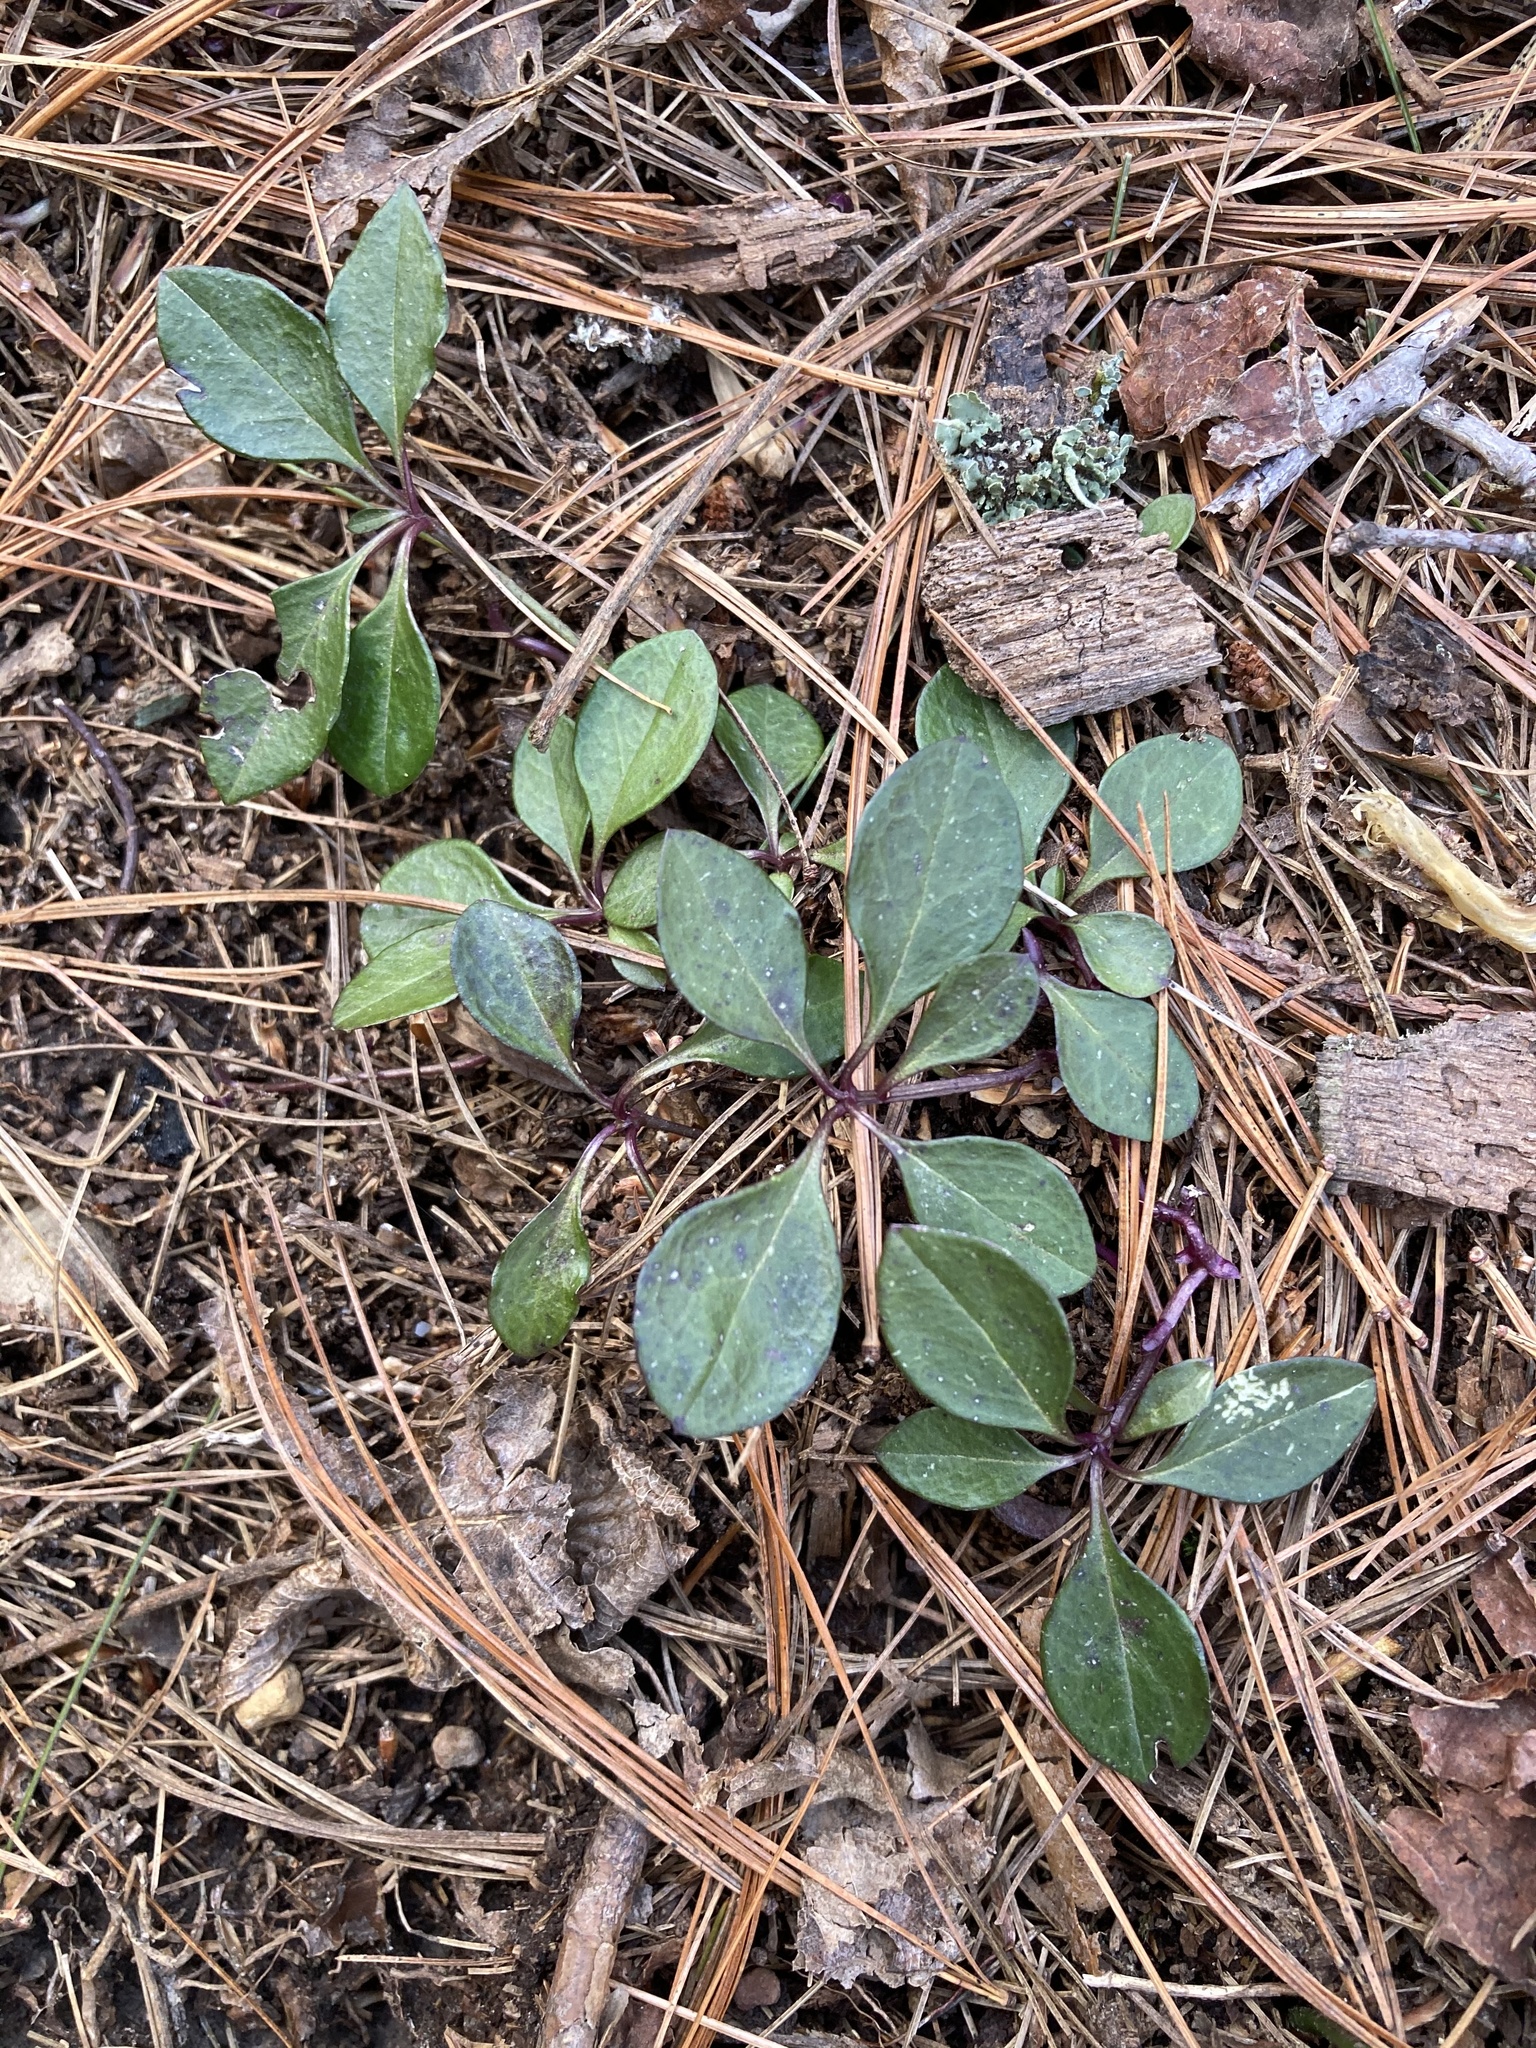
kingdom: Plantae
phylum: Tracheophyta
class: Magnoliopsida
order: Fabales
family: Polygalaceae
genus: Polygaloides
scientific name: Polygaloides paucifolia
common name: Bird-on-the-wing
